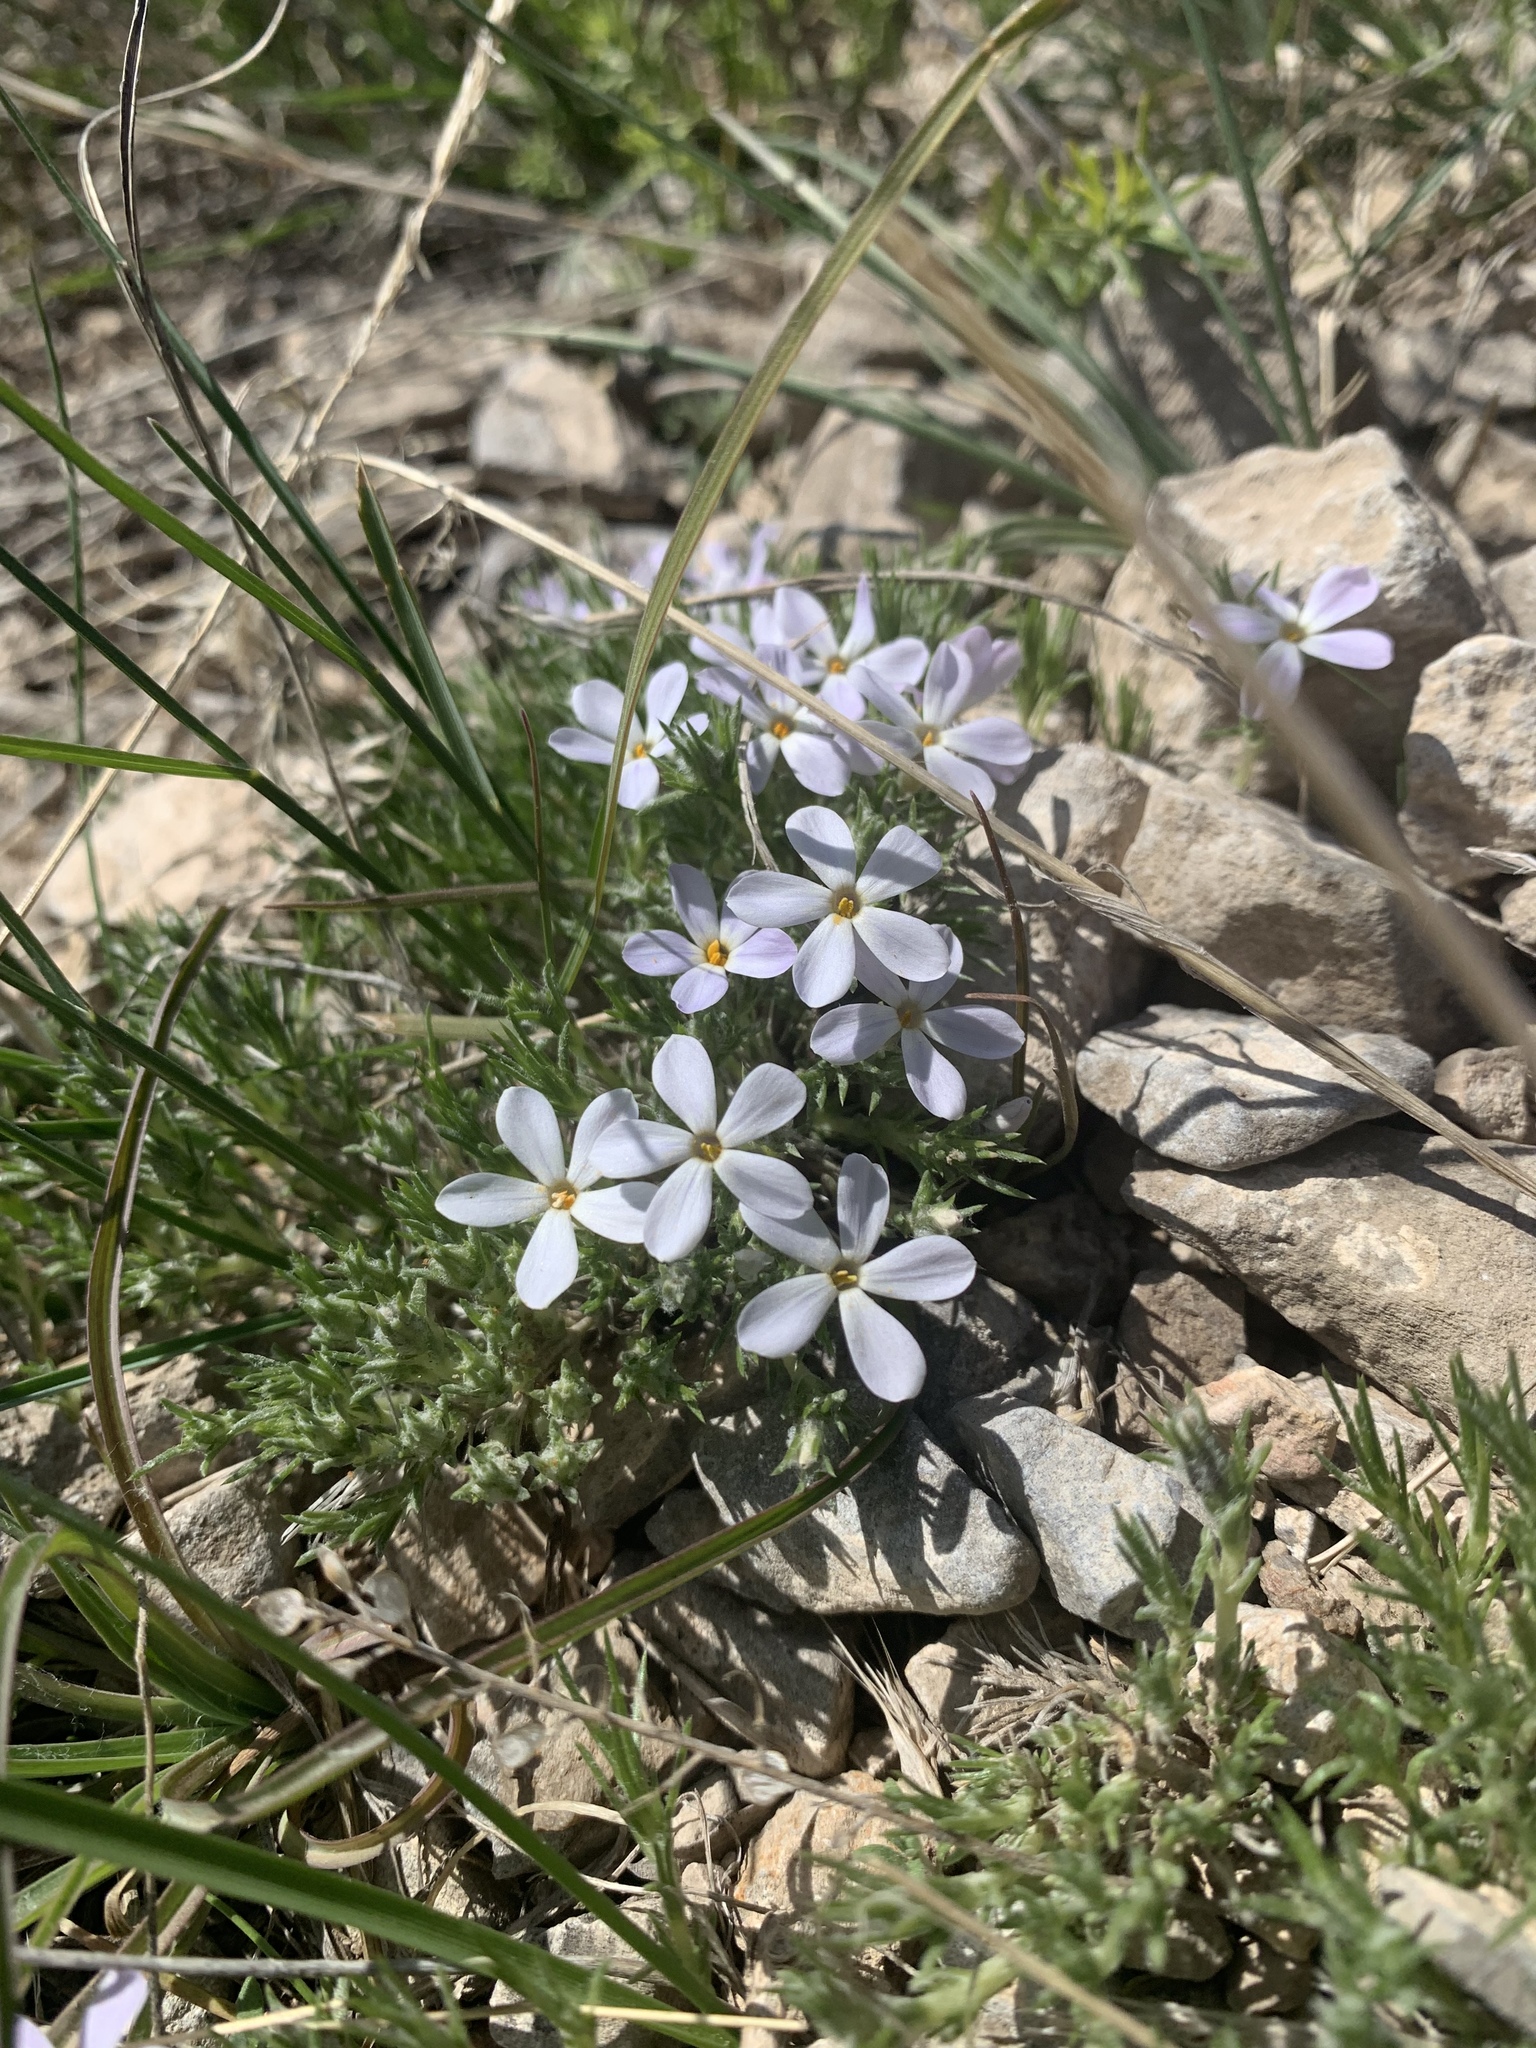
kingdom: Plantae
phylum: Tracheophyta
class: Magnoliopsida
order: Ericales
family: Polemoniaceae
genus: Phlox
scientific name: Phlox hoodii
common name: Moss phlox
